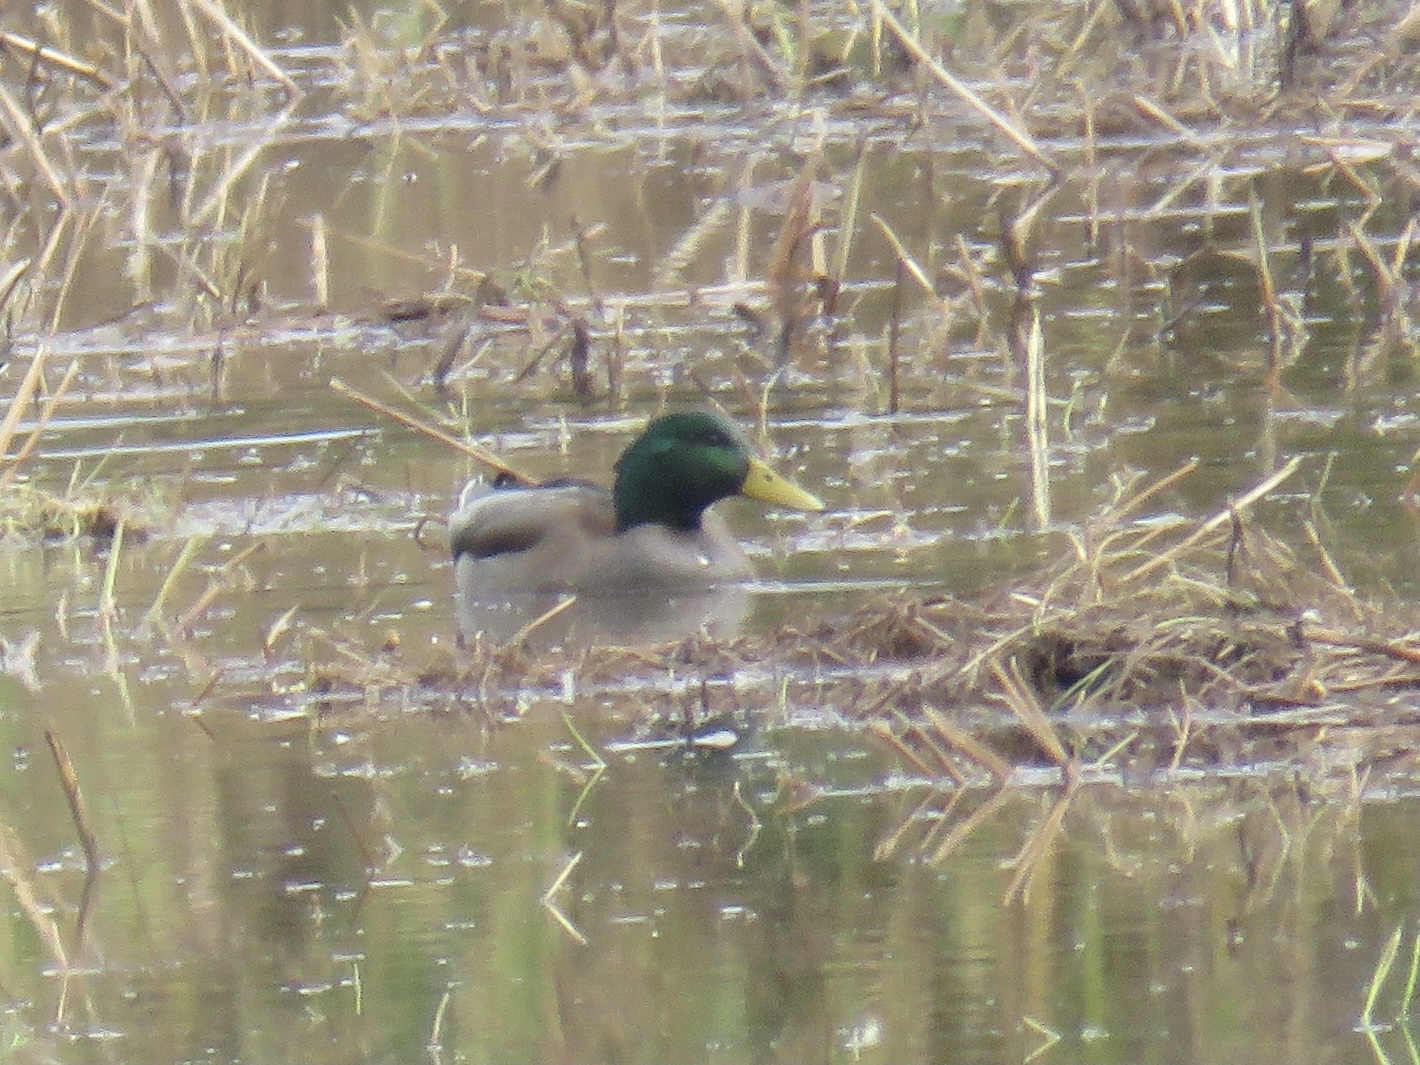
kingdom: Animalia
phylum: Chordata
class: Aves
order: Anseriformes
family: Anatidae
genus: Anas
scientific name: Anas platyrhynchos
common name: Mallard
